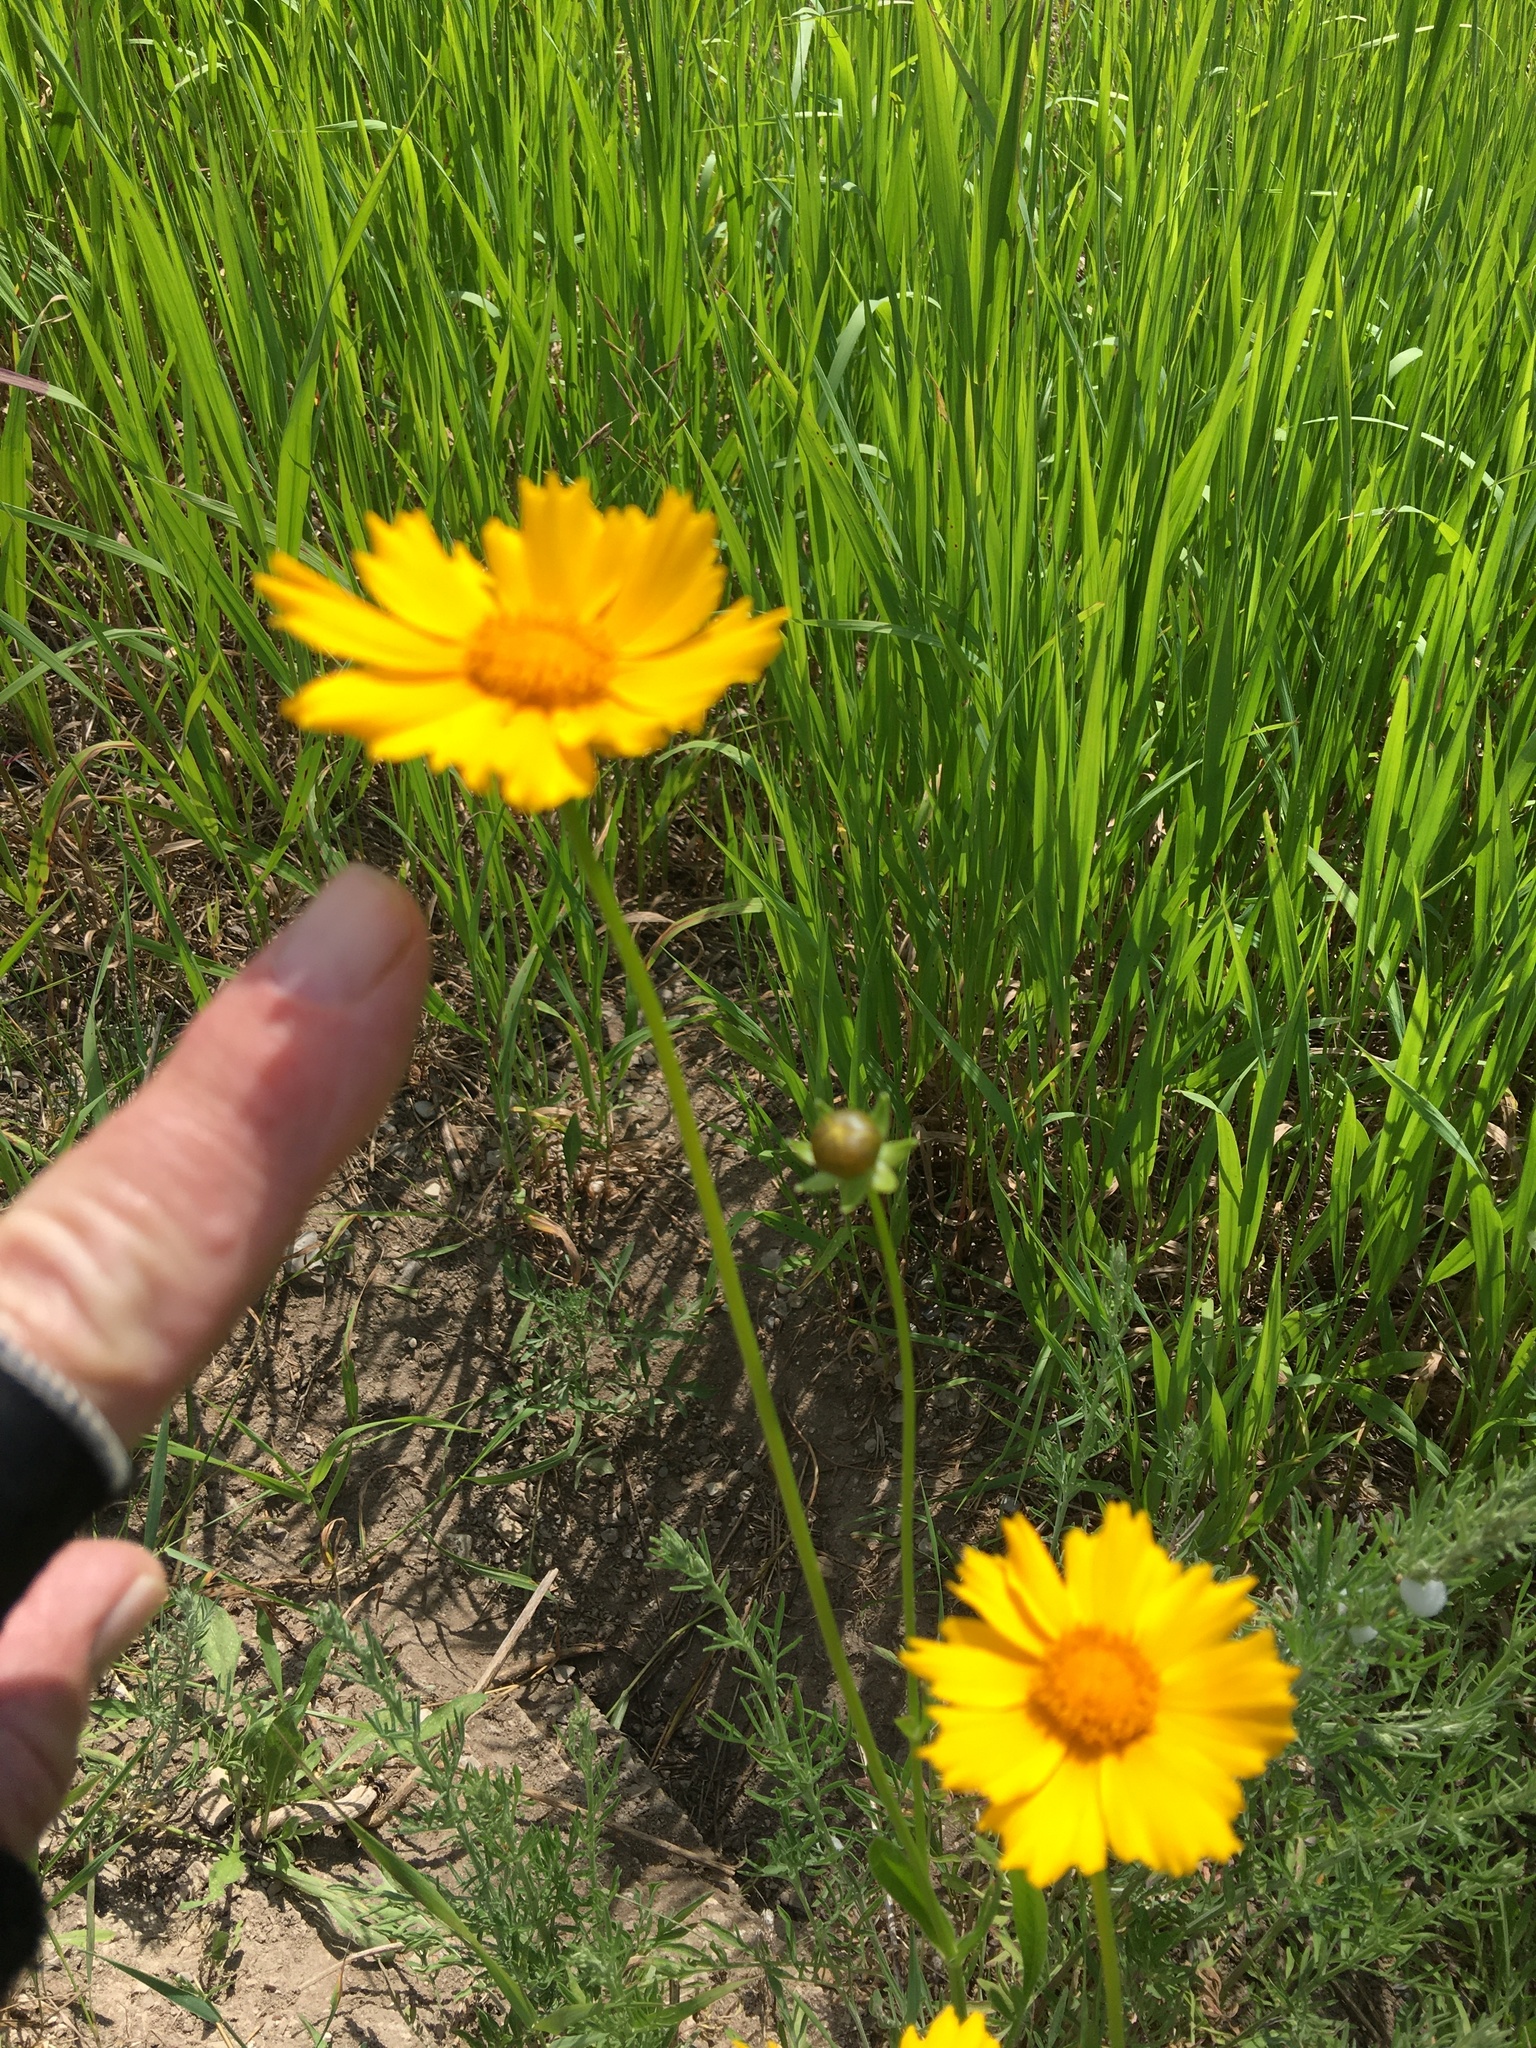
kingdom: Plantae
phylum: Tracheophyta
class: Magnoliopsida
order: Asterales
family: Asteraceae
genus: Coreopsis
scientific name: Coreopsis lanceolata
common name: Garden coreopsis
